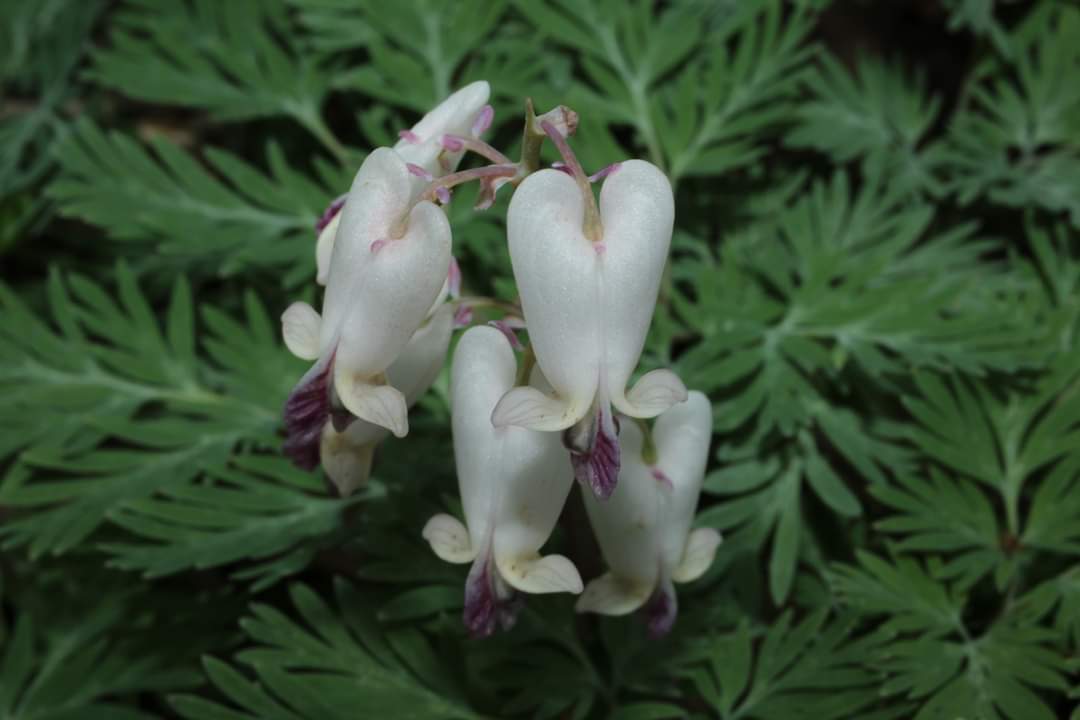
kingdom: Plantae
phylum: Tracheophyta
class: Magnoliopsida
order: Ranunculales
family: Papaveraceae
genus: Dicentra
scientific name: Dicentra canadensis
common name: Squirrel-corn
